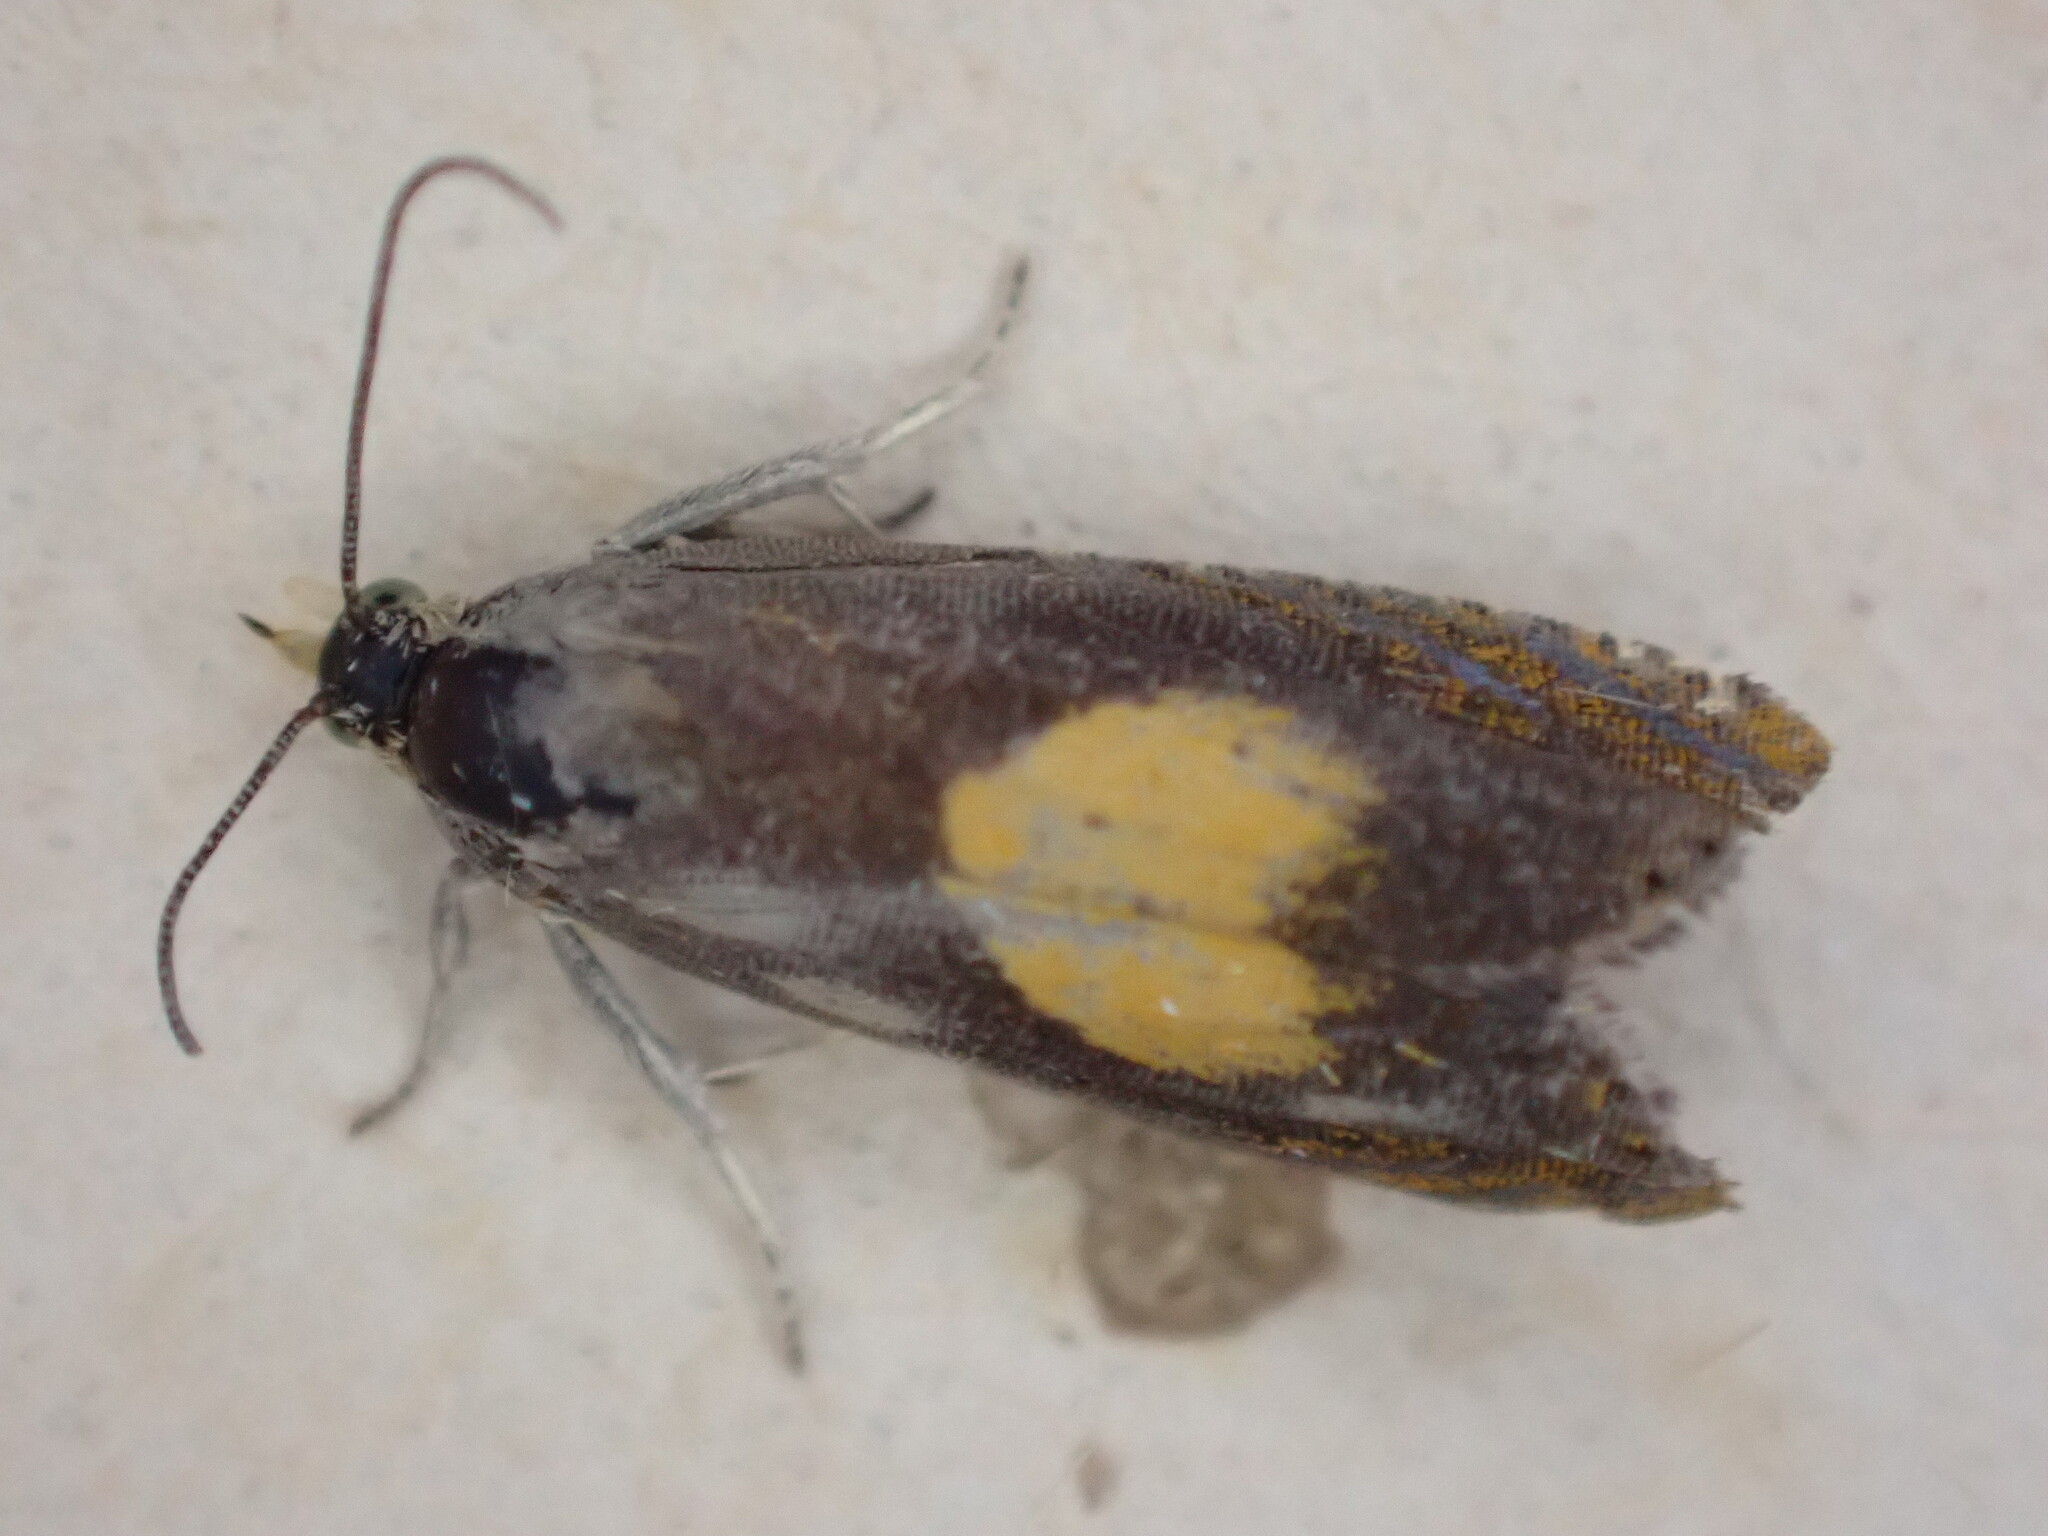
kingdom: Animalia
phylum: Arthropoda
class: Insecta
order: Lepidoptera
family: Tortricidae
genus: Pammene
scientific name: Pammene regiana
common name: Regal piercer
